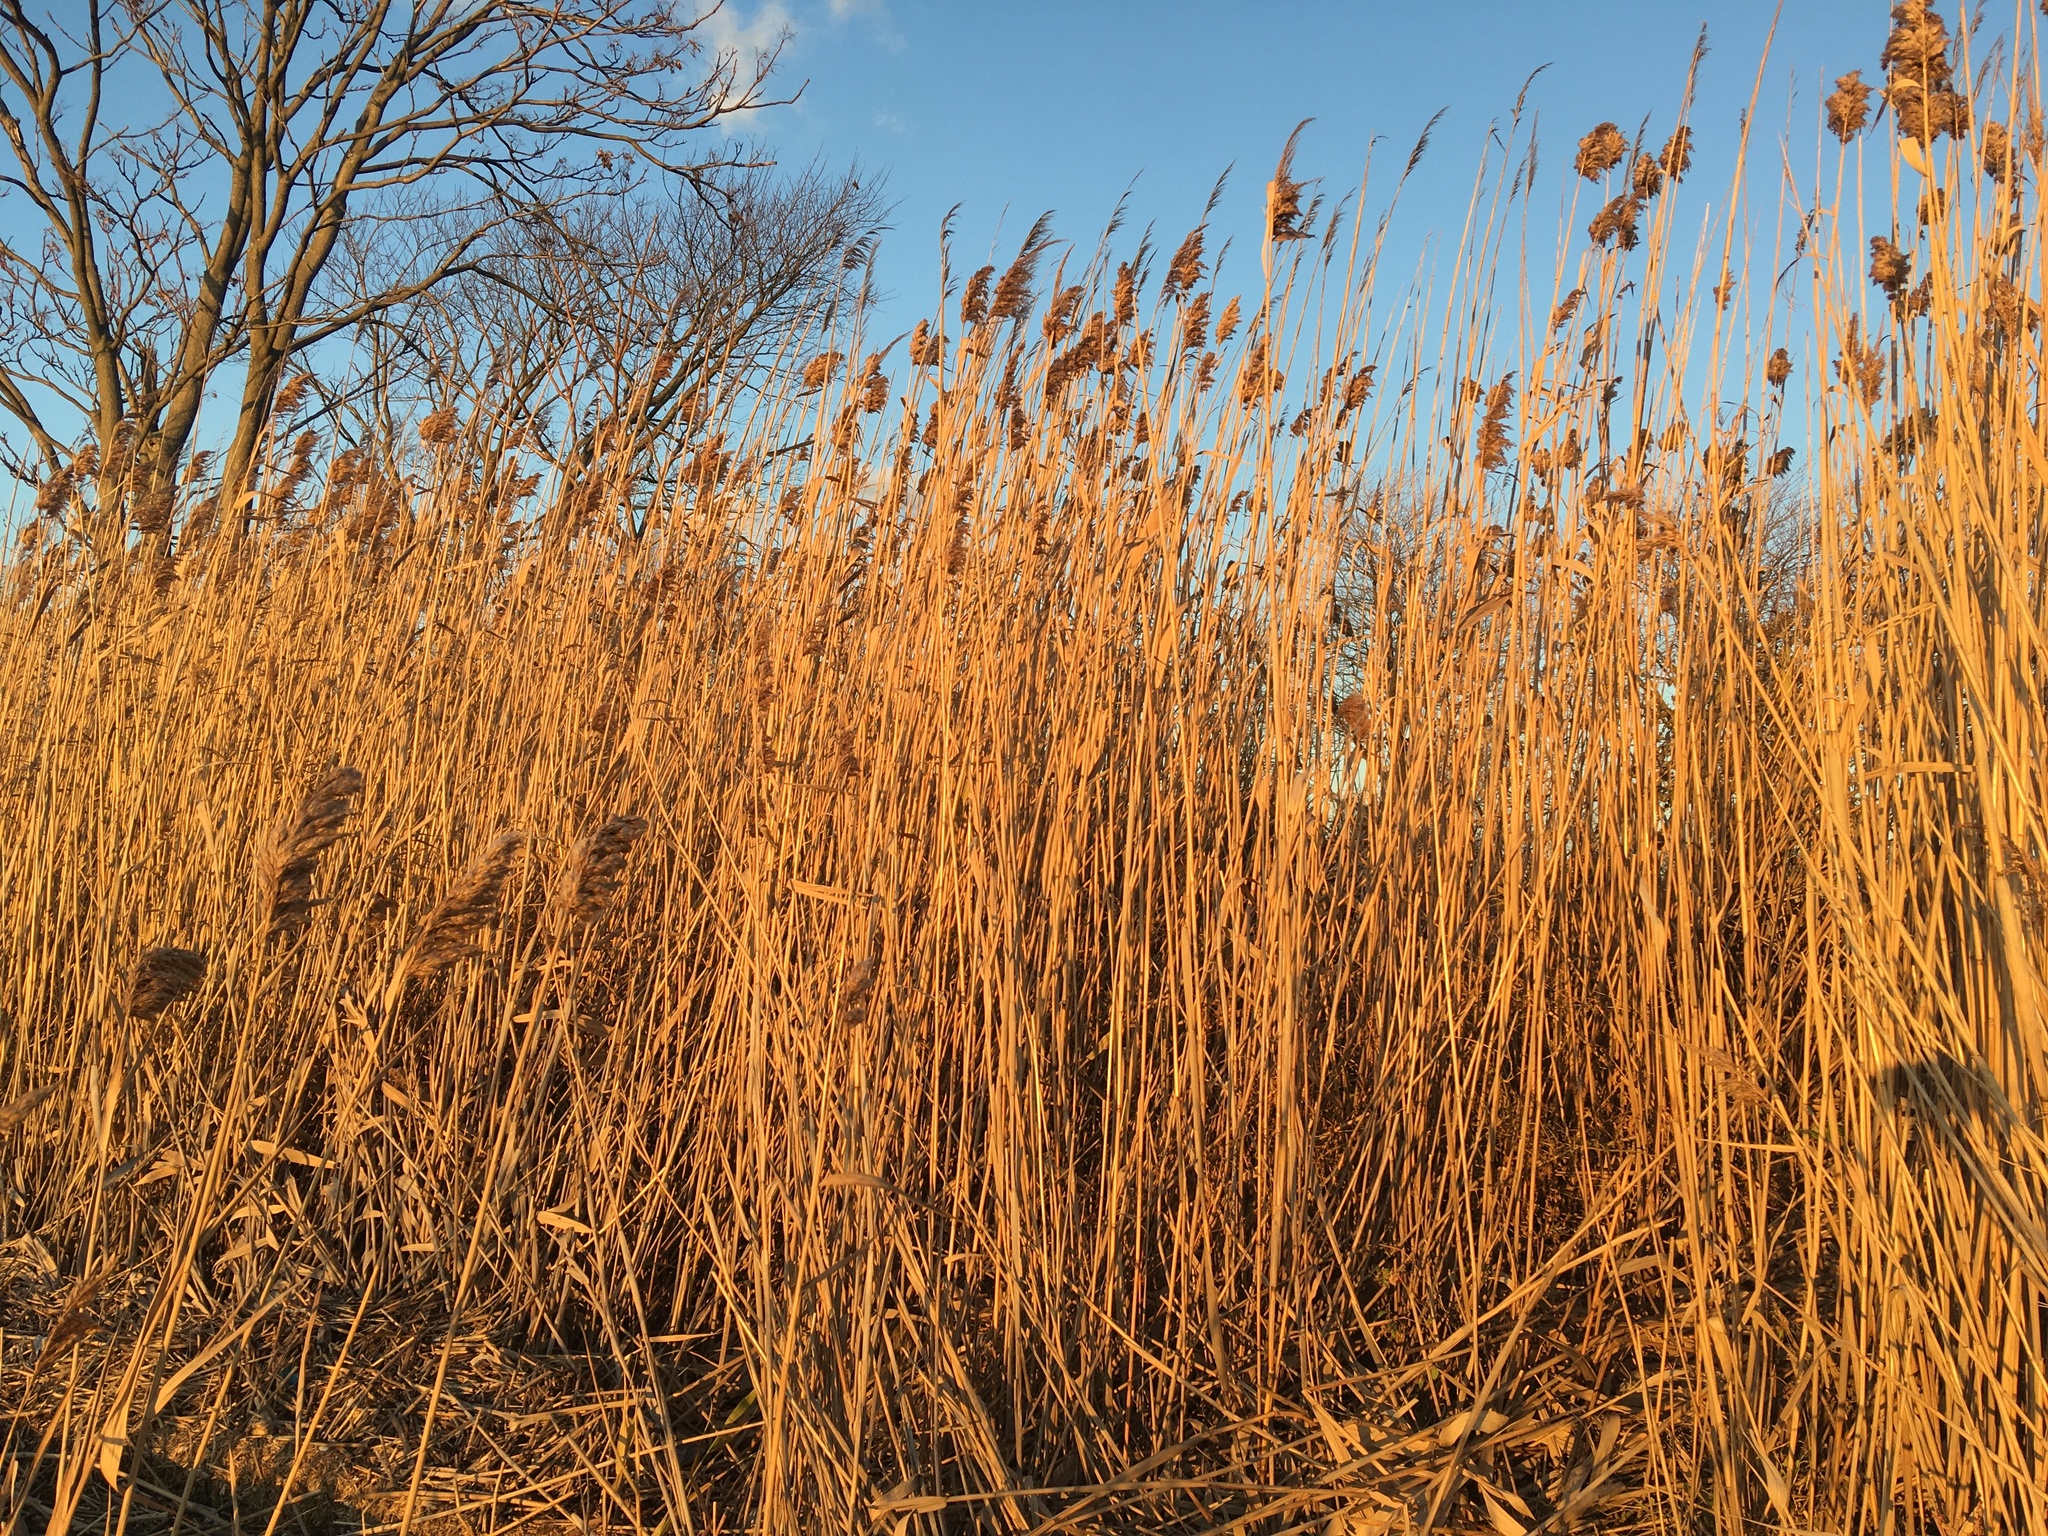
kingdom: Plantae
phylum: Tracheophyta
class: Liliopsida
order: Poales
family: Poaceae
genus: Phragmites
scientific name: Phragmites australis
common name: Common reed
